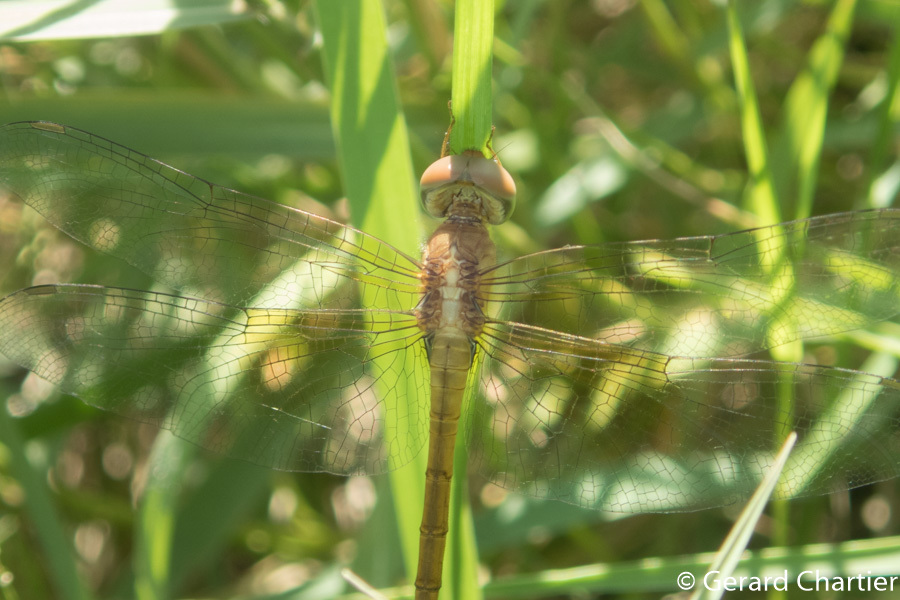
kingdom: Animalia
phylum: Arthropoda
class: Insecta
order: Odonata
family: Libellulidae
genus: Tholymis
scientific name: Tholymis tillarga
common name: Coral-tailed cloud wing
